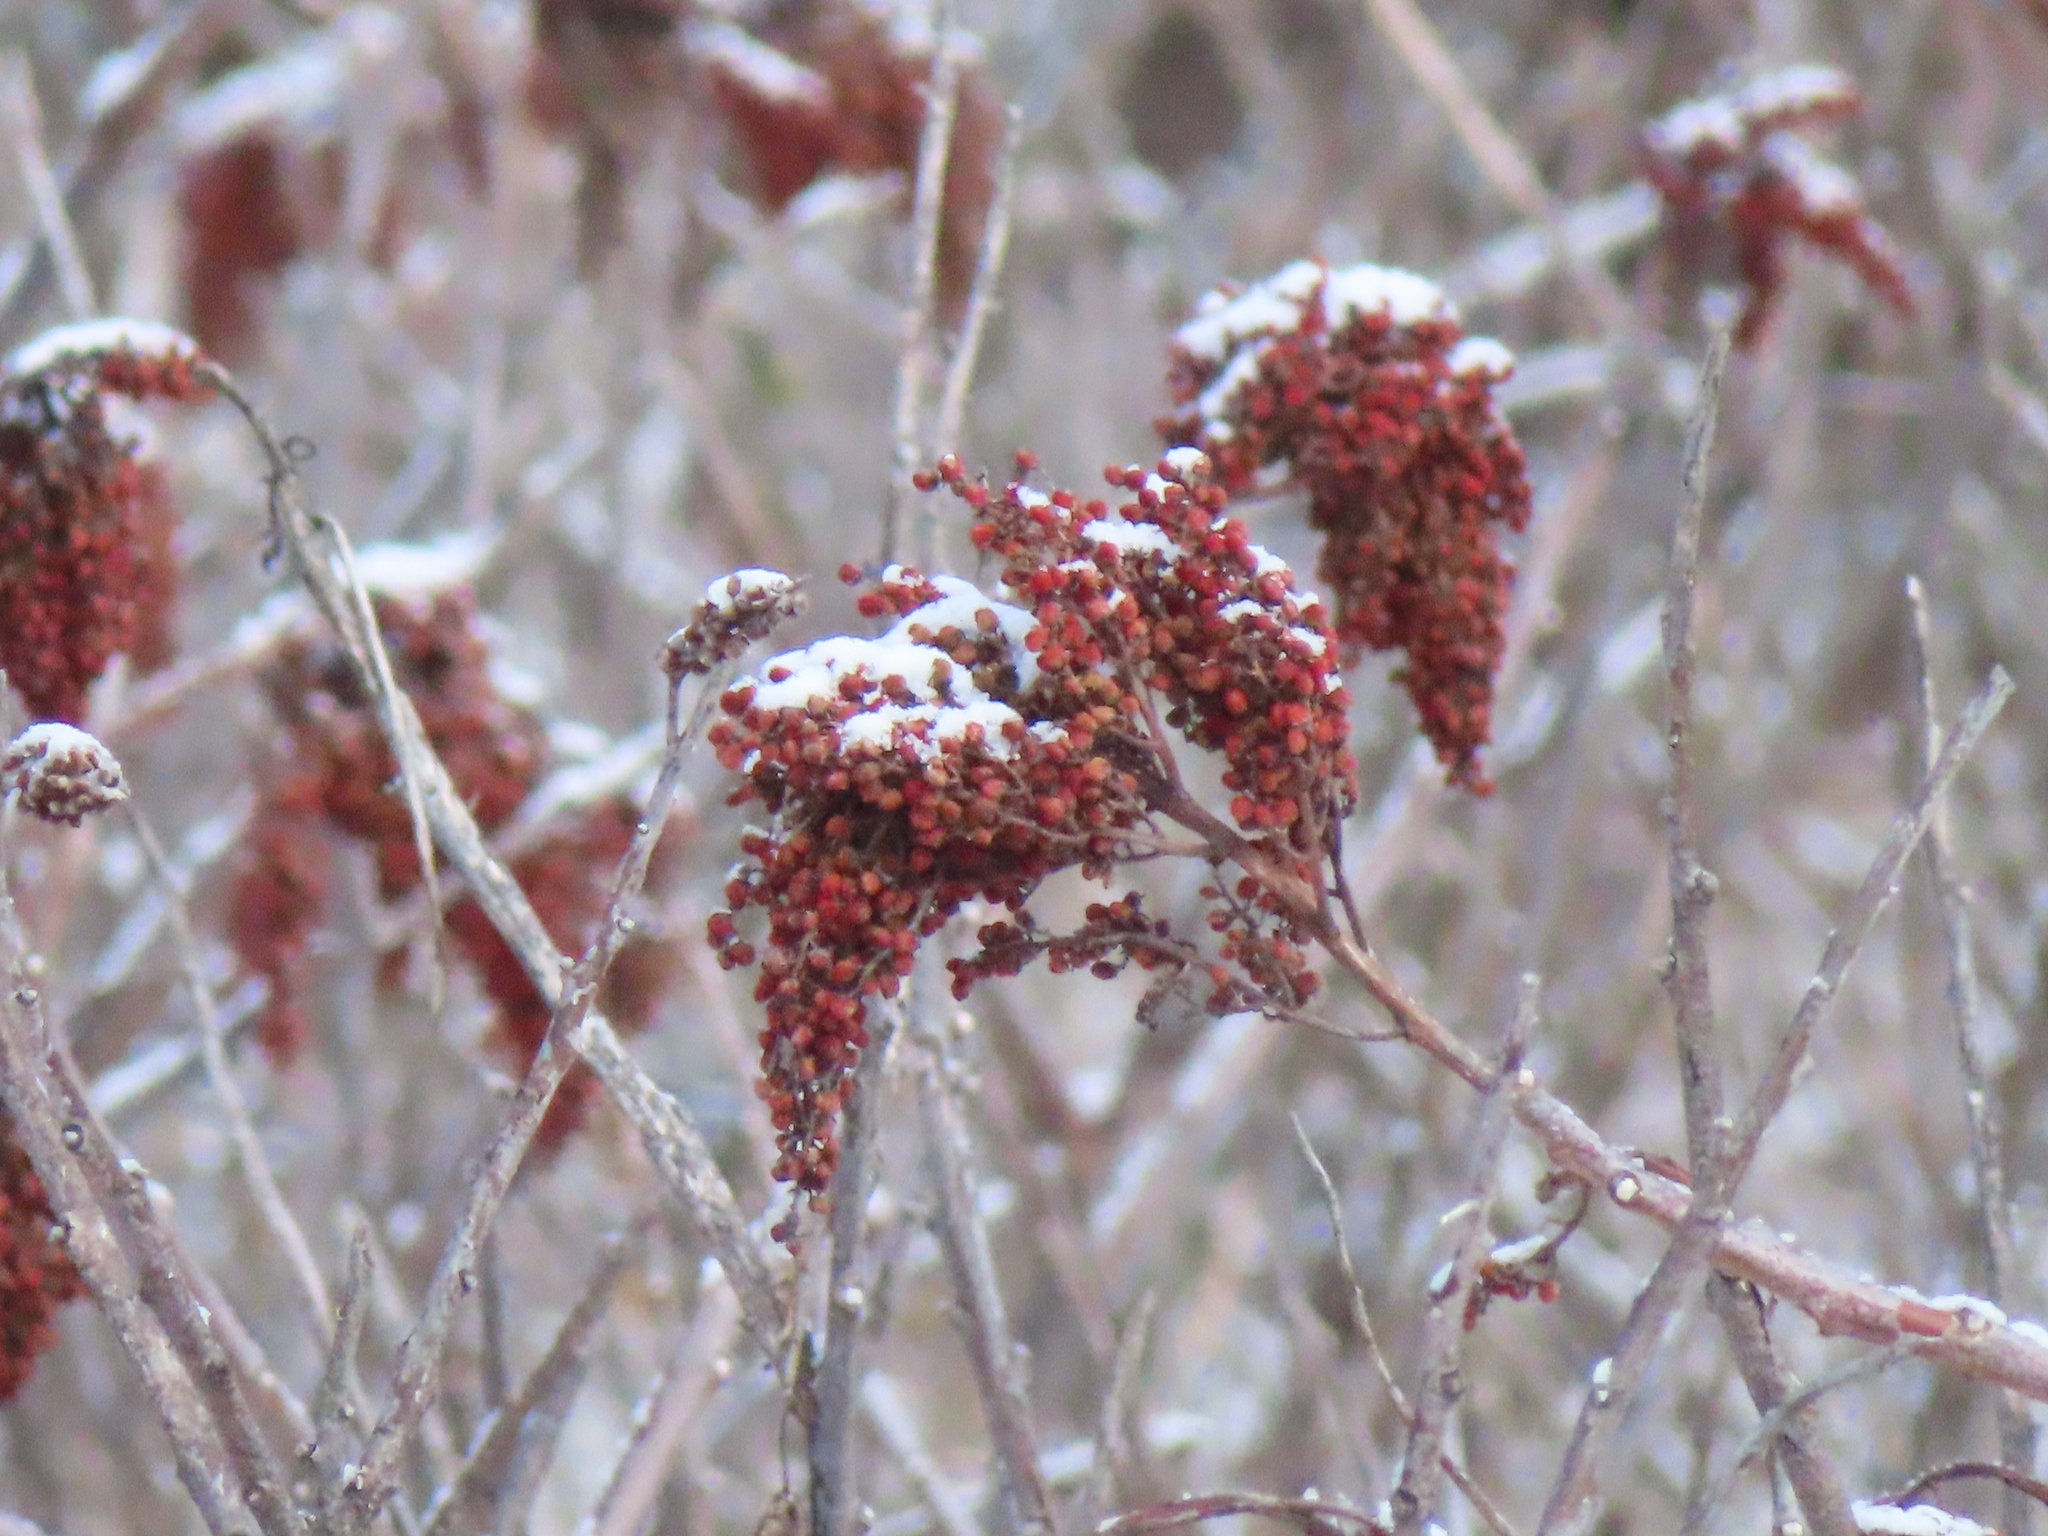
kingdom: Plantae
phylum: Tracheophyta
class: Magnoliopsida
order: Sapindales
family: Anacardiaceae
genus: Rhus
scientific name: Rhus glabra
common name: Scarlet sumac
